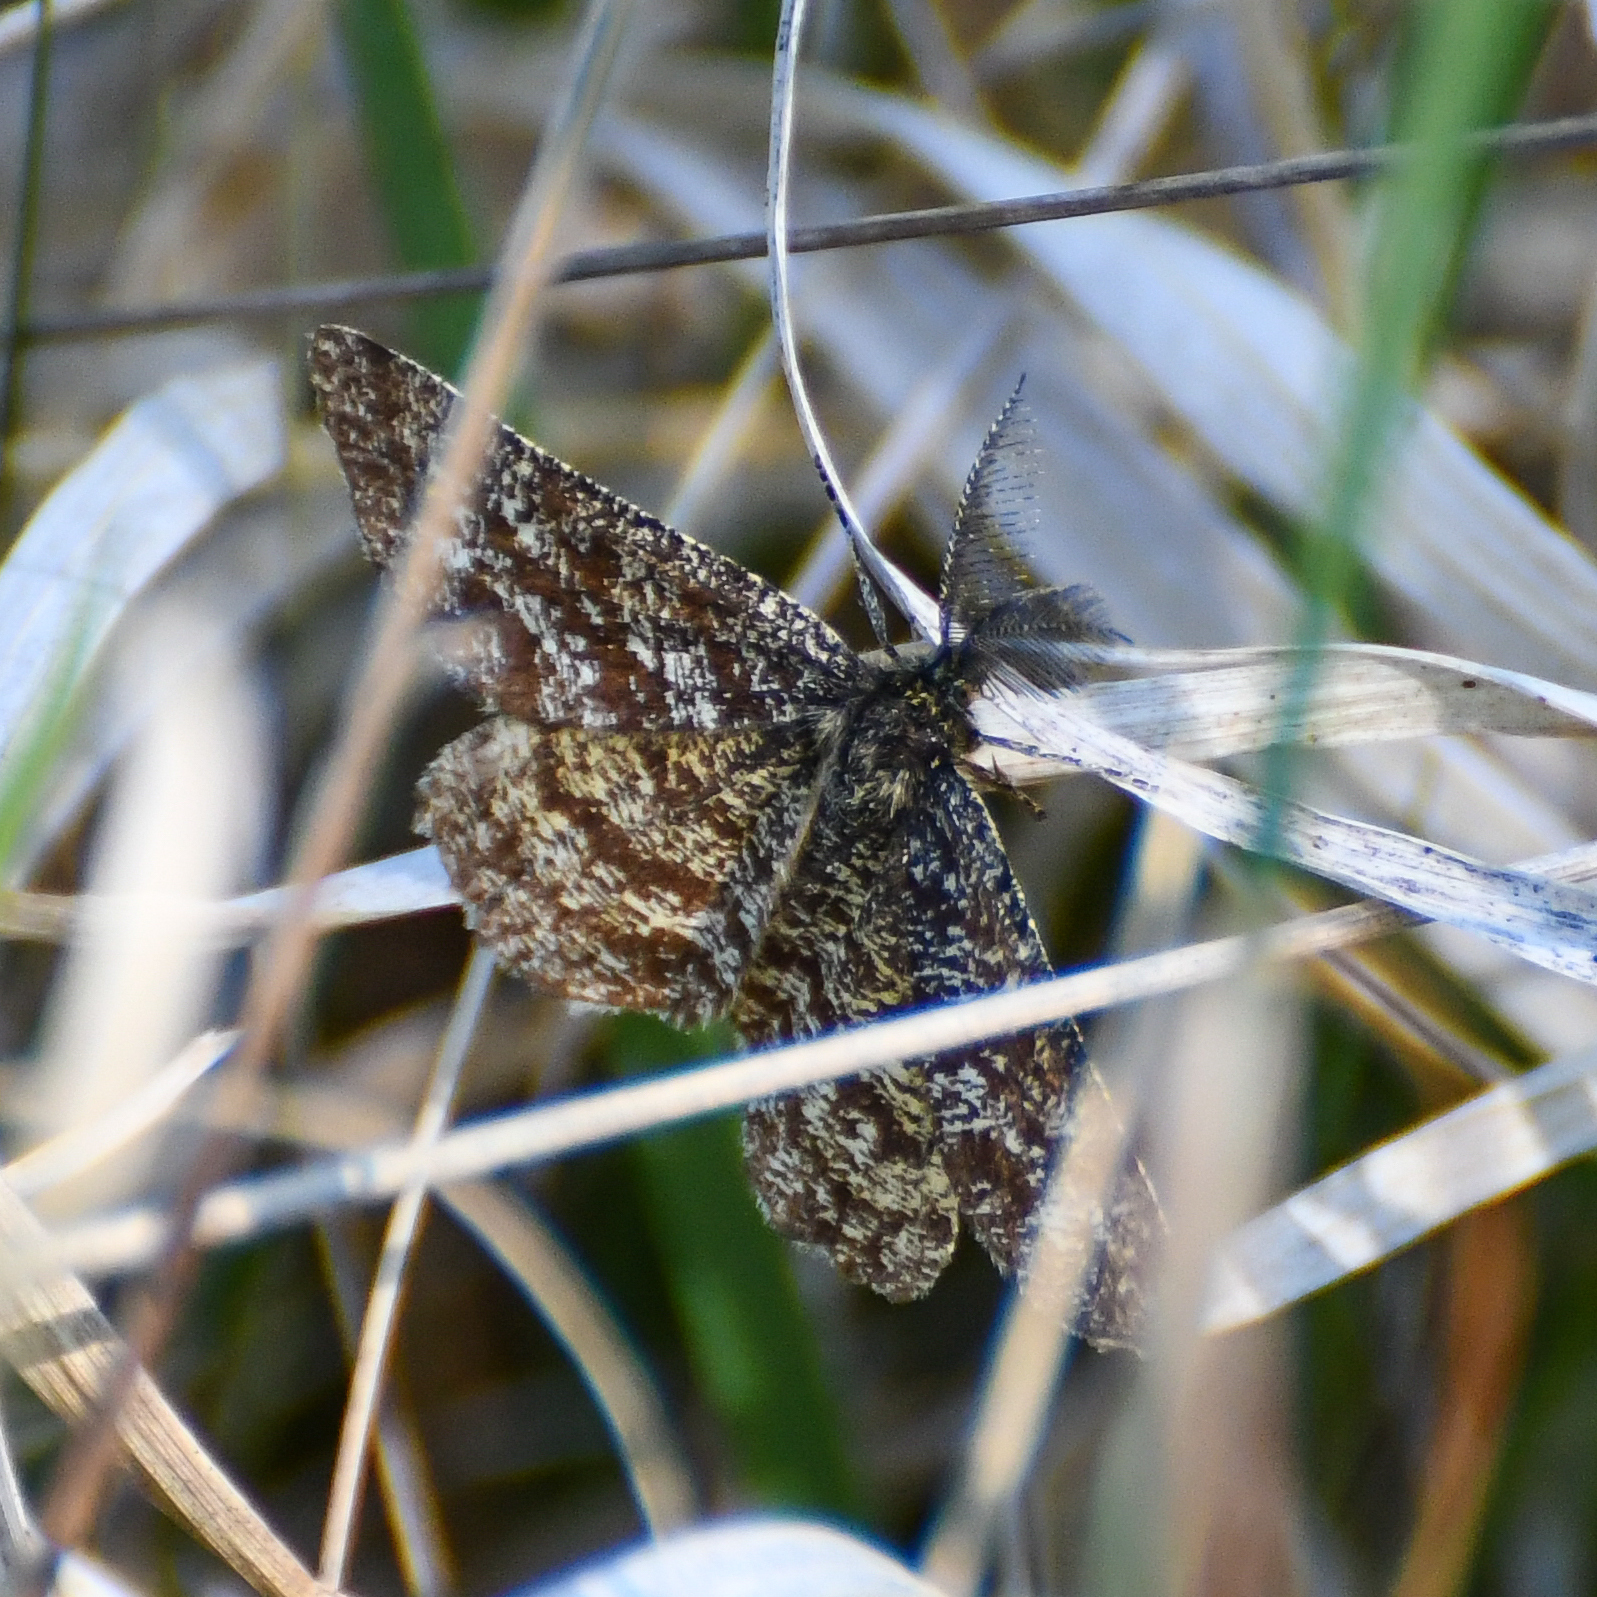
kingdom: Animalia
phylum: Arthropoda
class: Insecta
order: Lepidoptera
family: Geometridae
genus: Ematurga
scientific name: Ematurga atomaria
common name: Common heath
